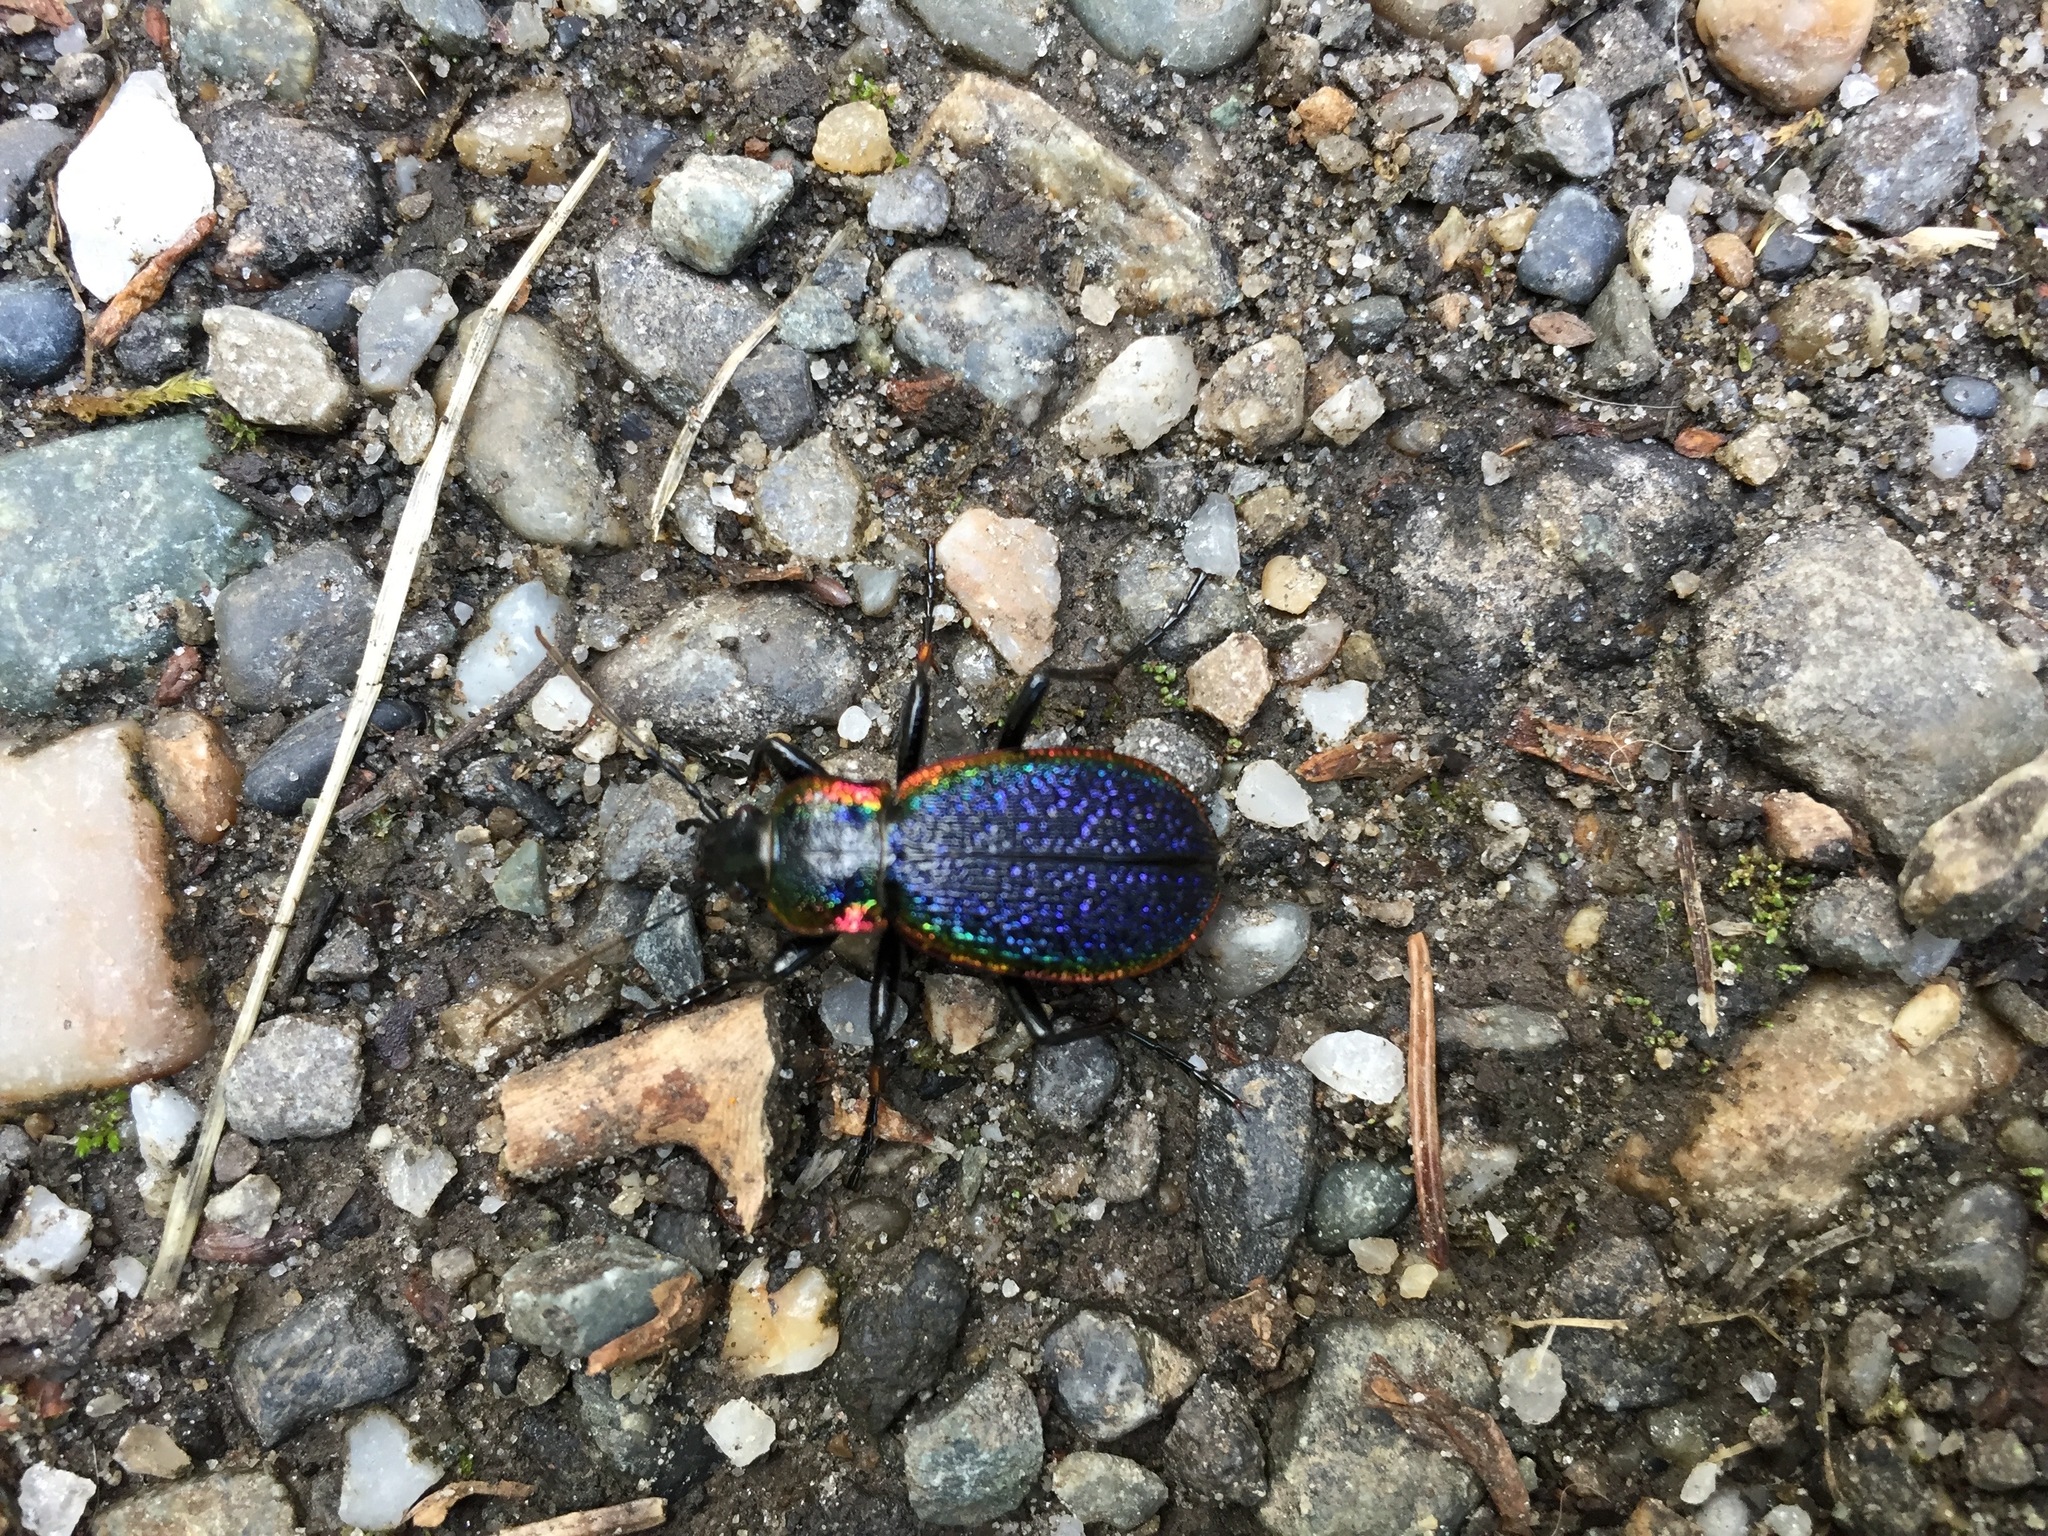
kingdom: Animalia
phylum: Arthropoda
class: Insecta
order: Coleoptera
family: Carabidae
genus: Carabus
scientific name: Carabus vietinghoffii
